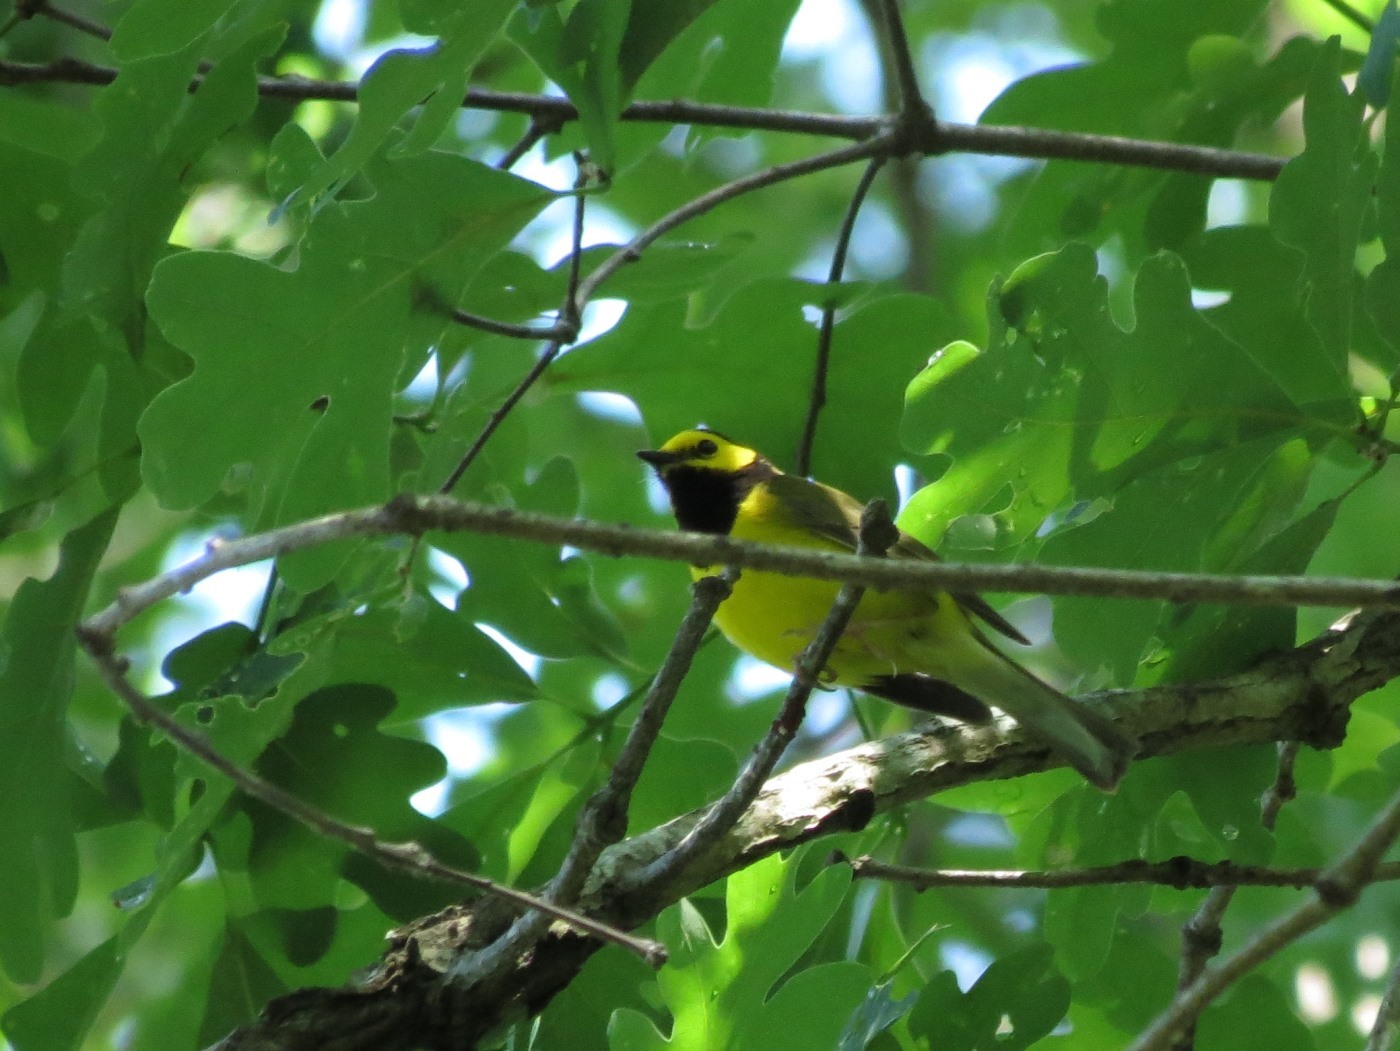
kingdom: Animalia
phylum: Chordata
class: Aves
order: Passeriformes
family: Parulidae
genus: Setophaga
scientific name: Setophaga citrina
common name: Hooded warbler
